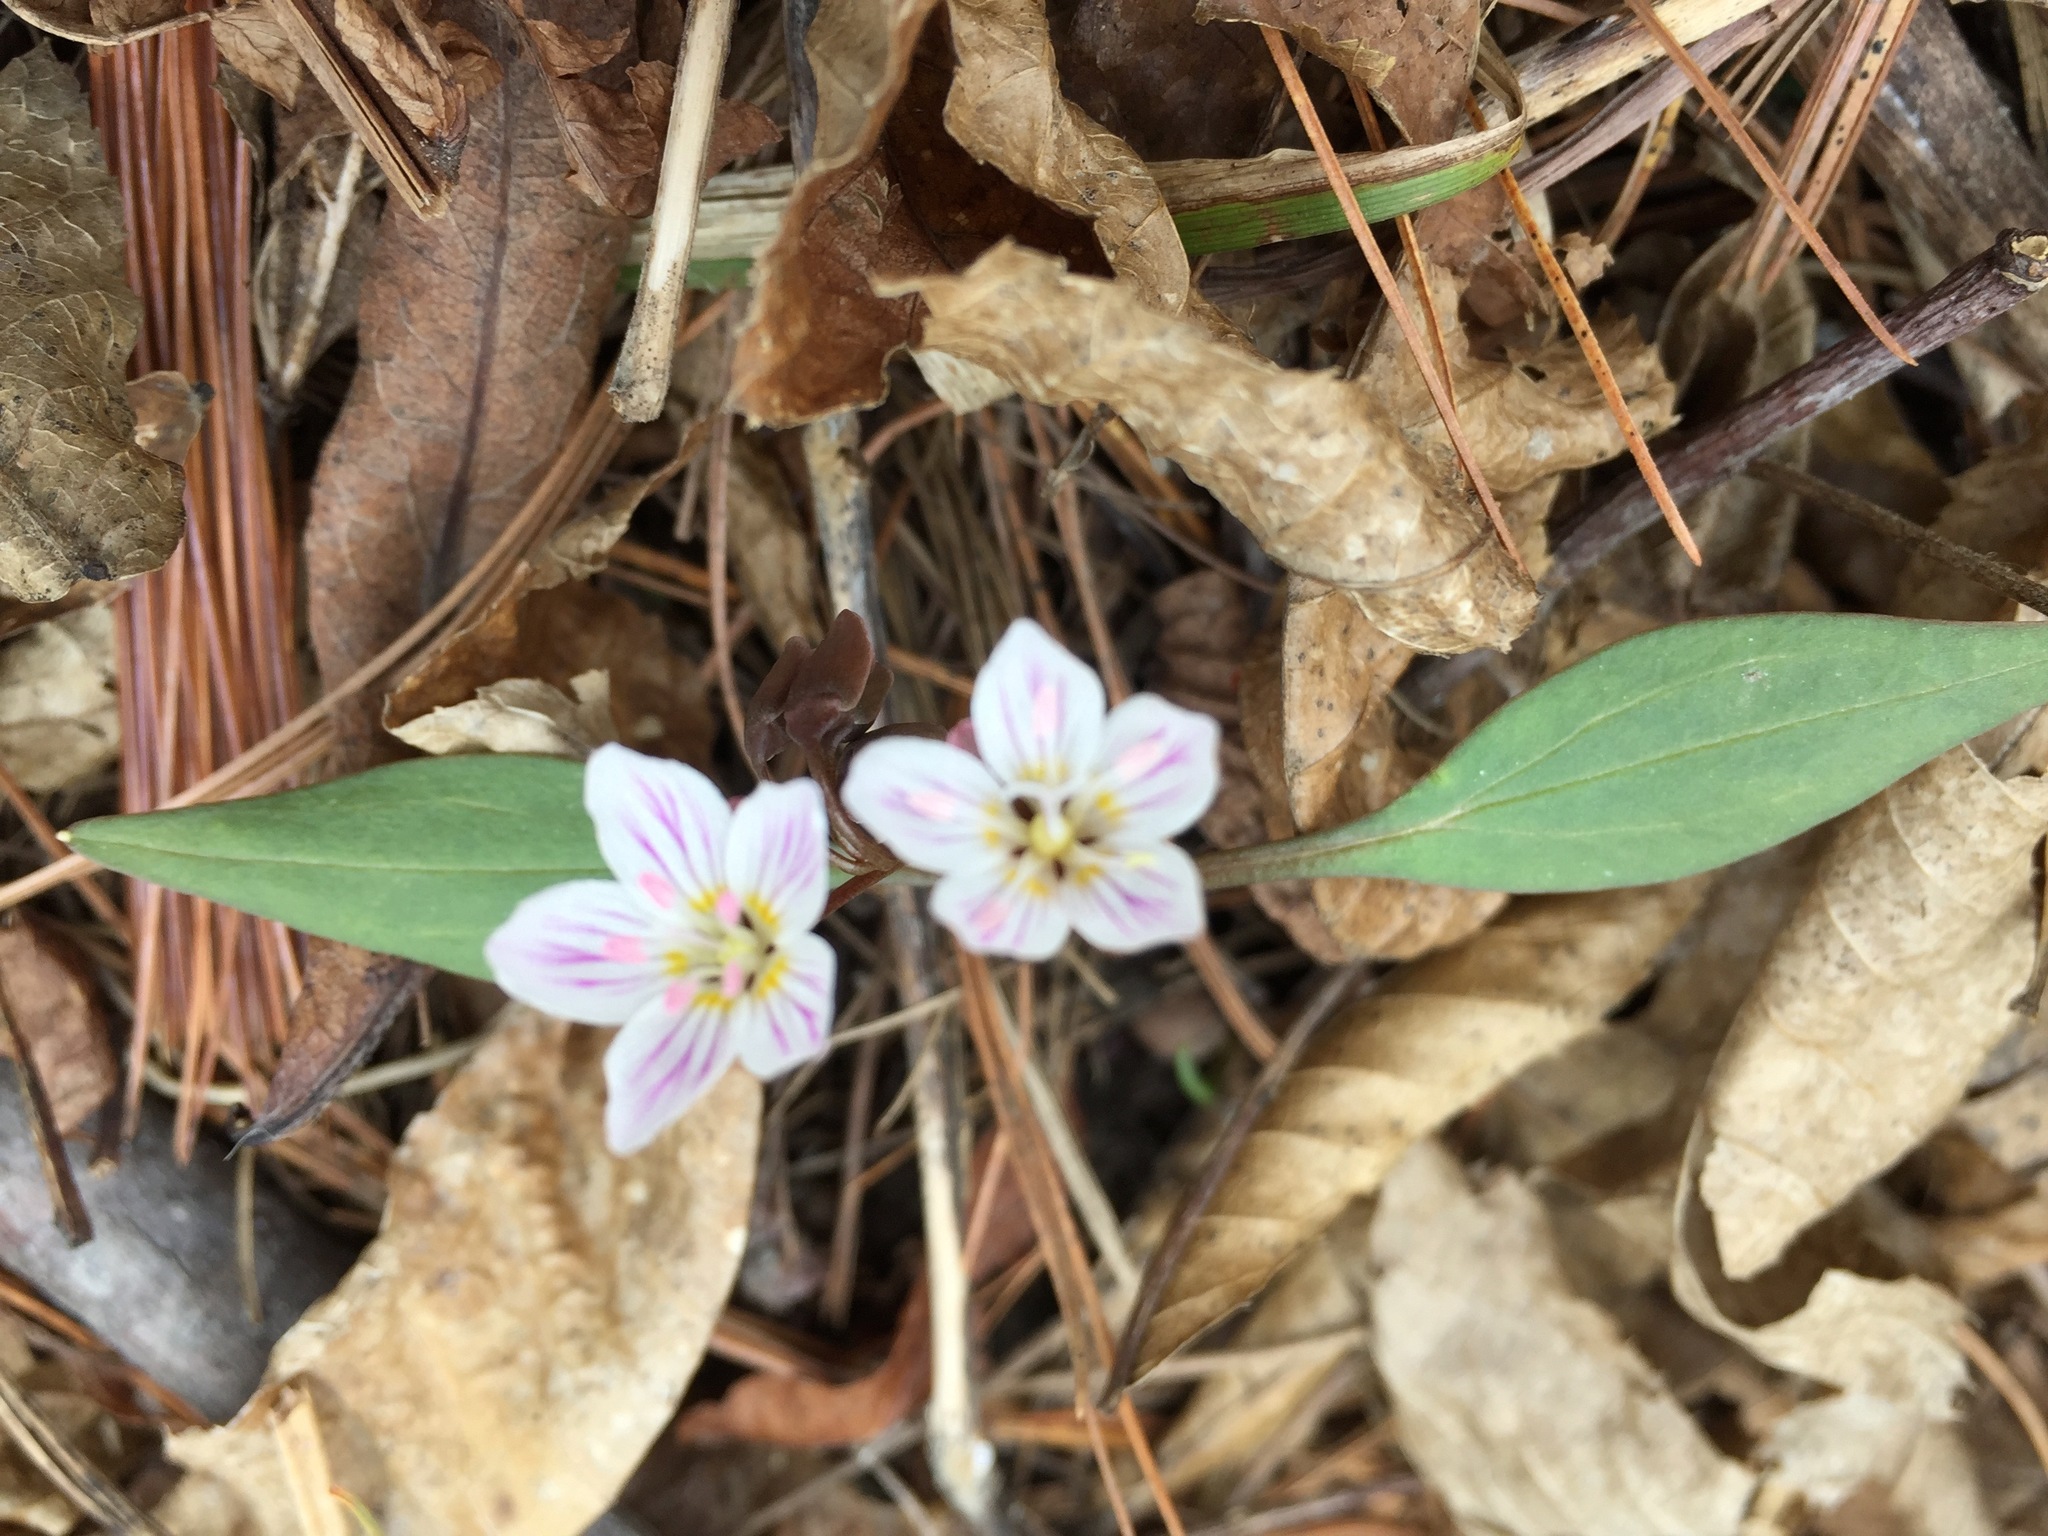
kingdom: Plantae
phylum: Tracheophyta
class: Magnoliopsida
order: Caryophyllales
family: Montiaceae
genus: Claytonia
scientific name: Claytonia caroliniana
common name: Carolina spring beauty
